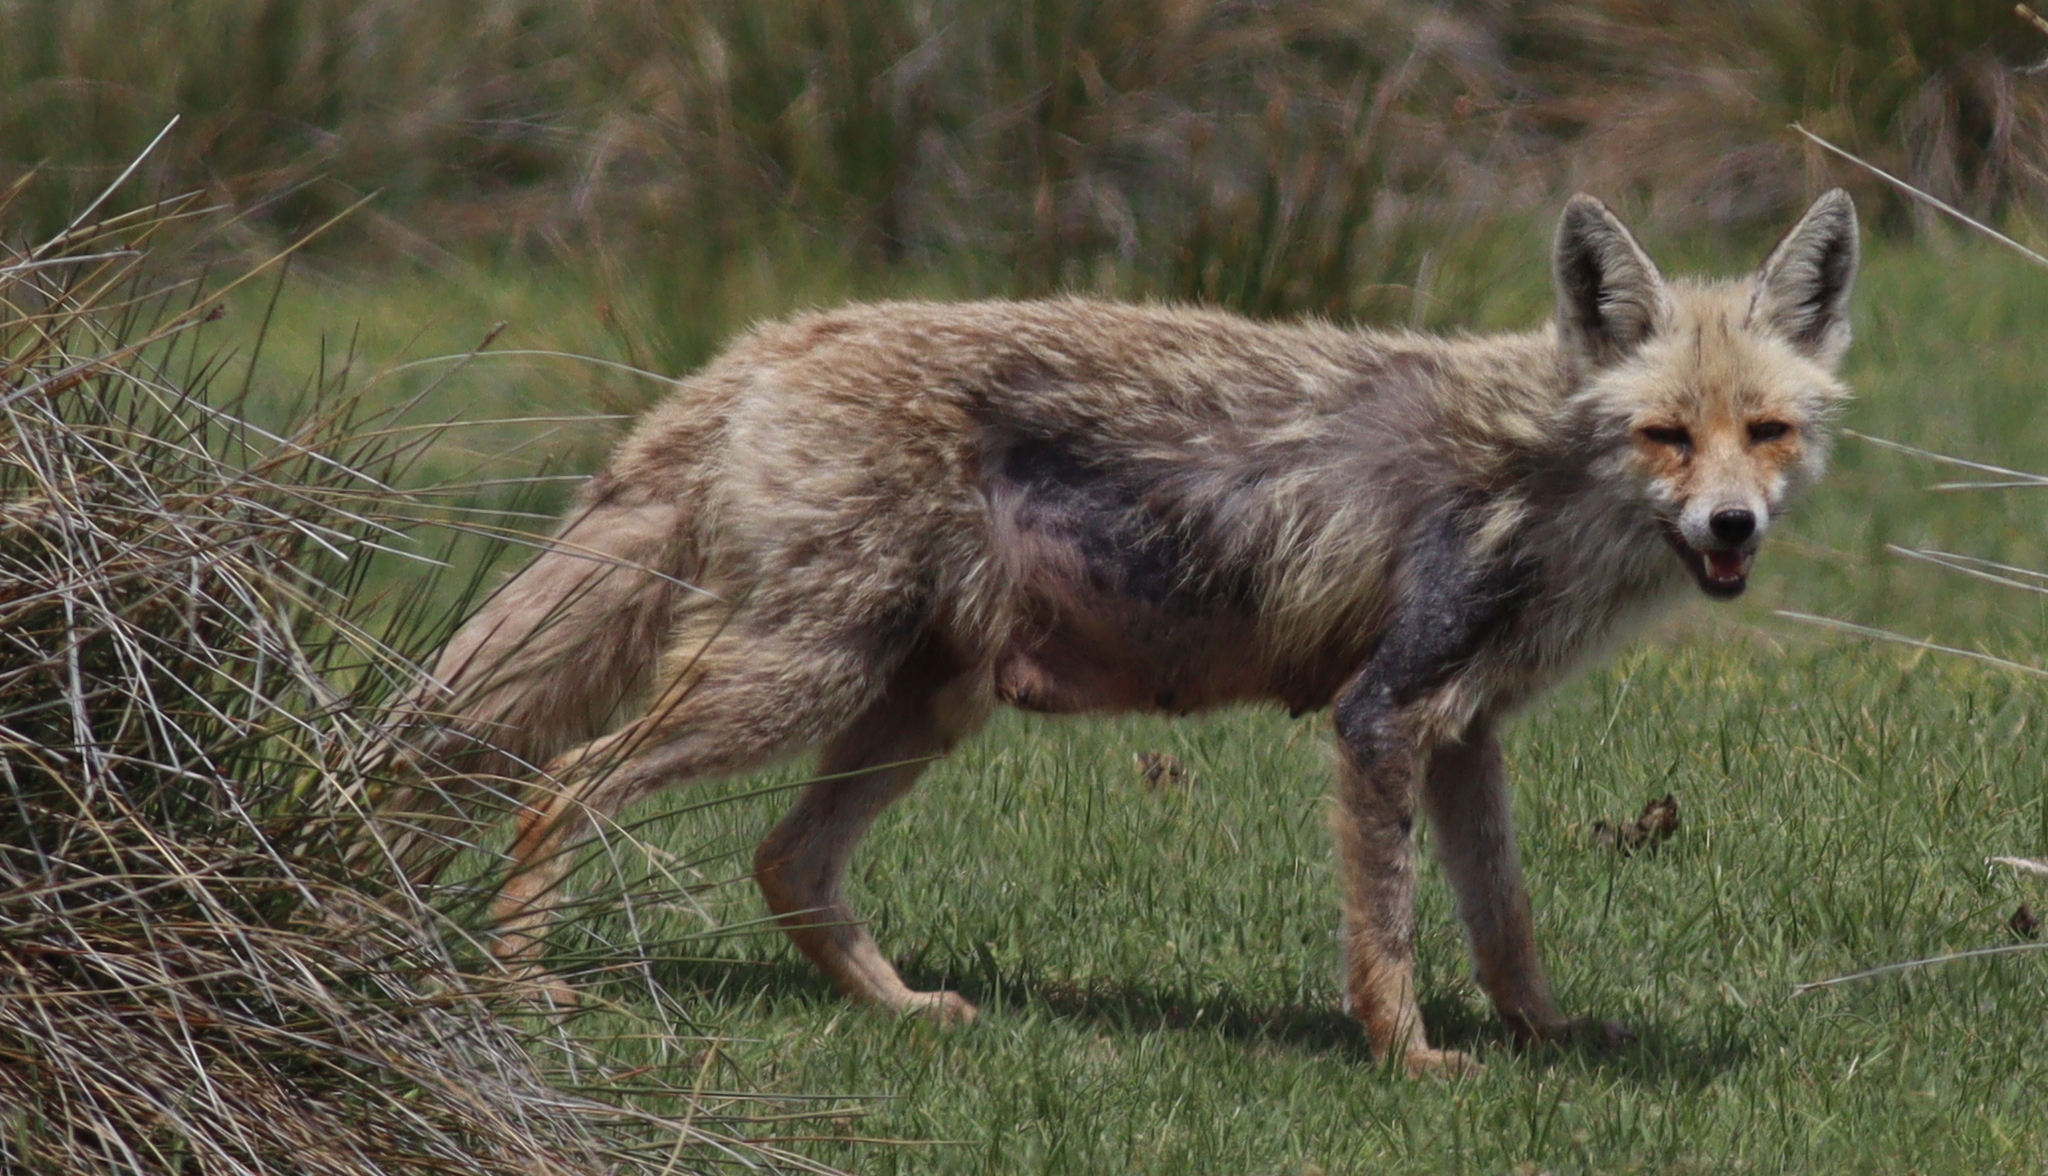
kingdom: Animalia
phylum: Chordata
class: Mammalia
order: Carnivora
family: Canidae
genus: Vulpes
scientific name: Vulpes vulpes
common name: Red fox
